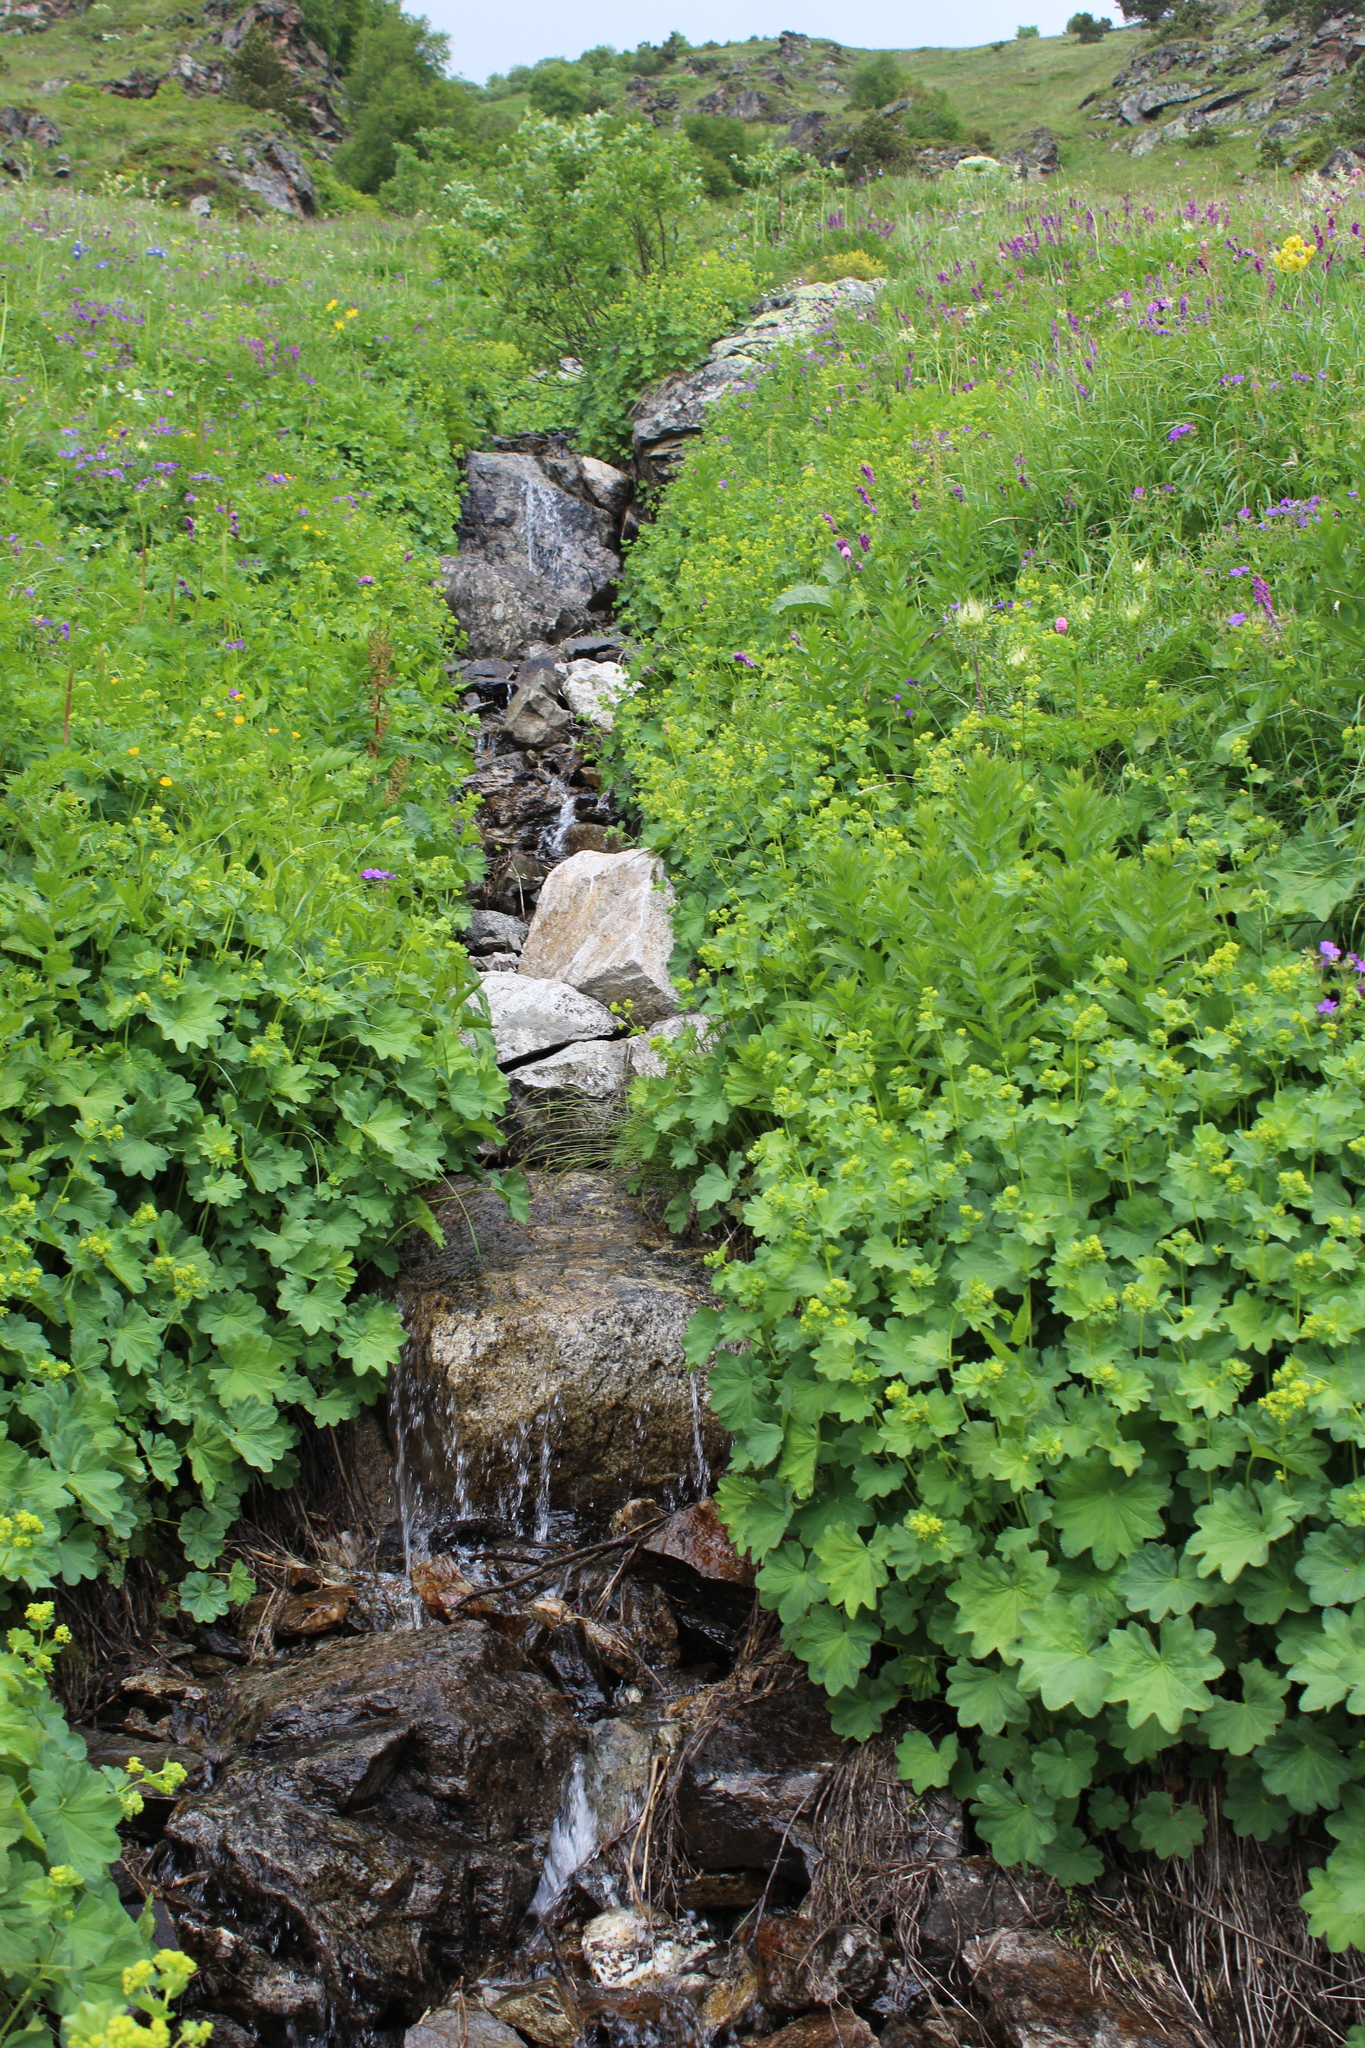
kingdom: Plantae
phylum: Tracheophyta
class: Magnoliopsida
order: Rosales
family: Rosaceae
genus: Alchemilla
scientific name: Alchemilla
